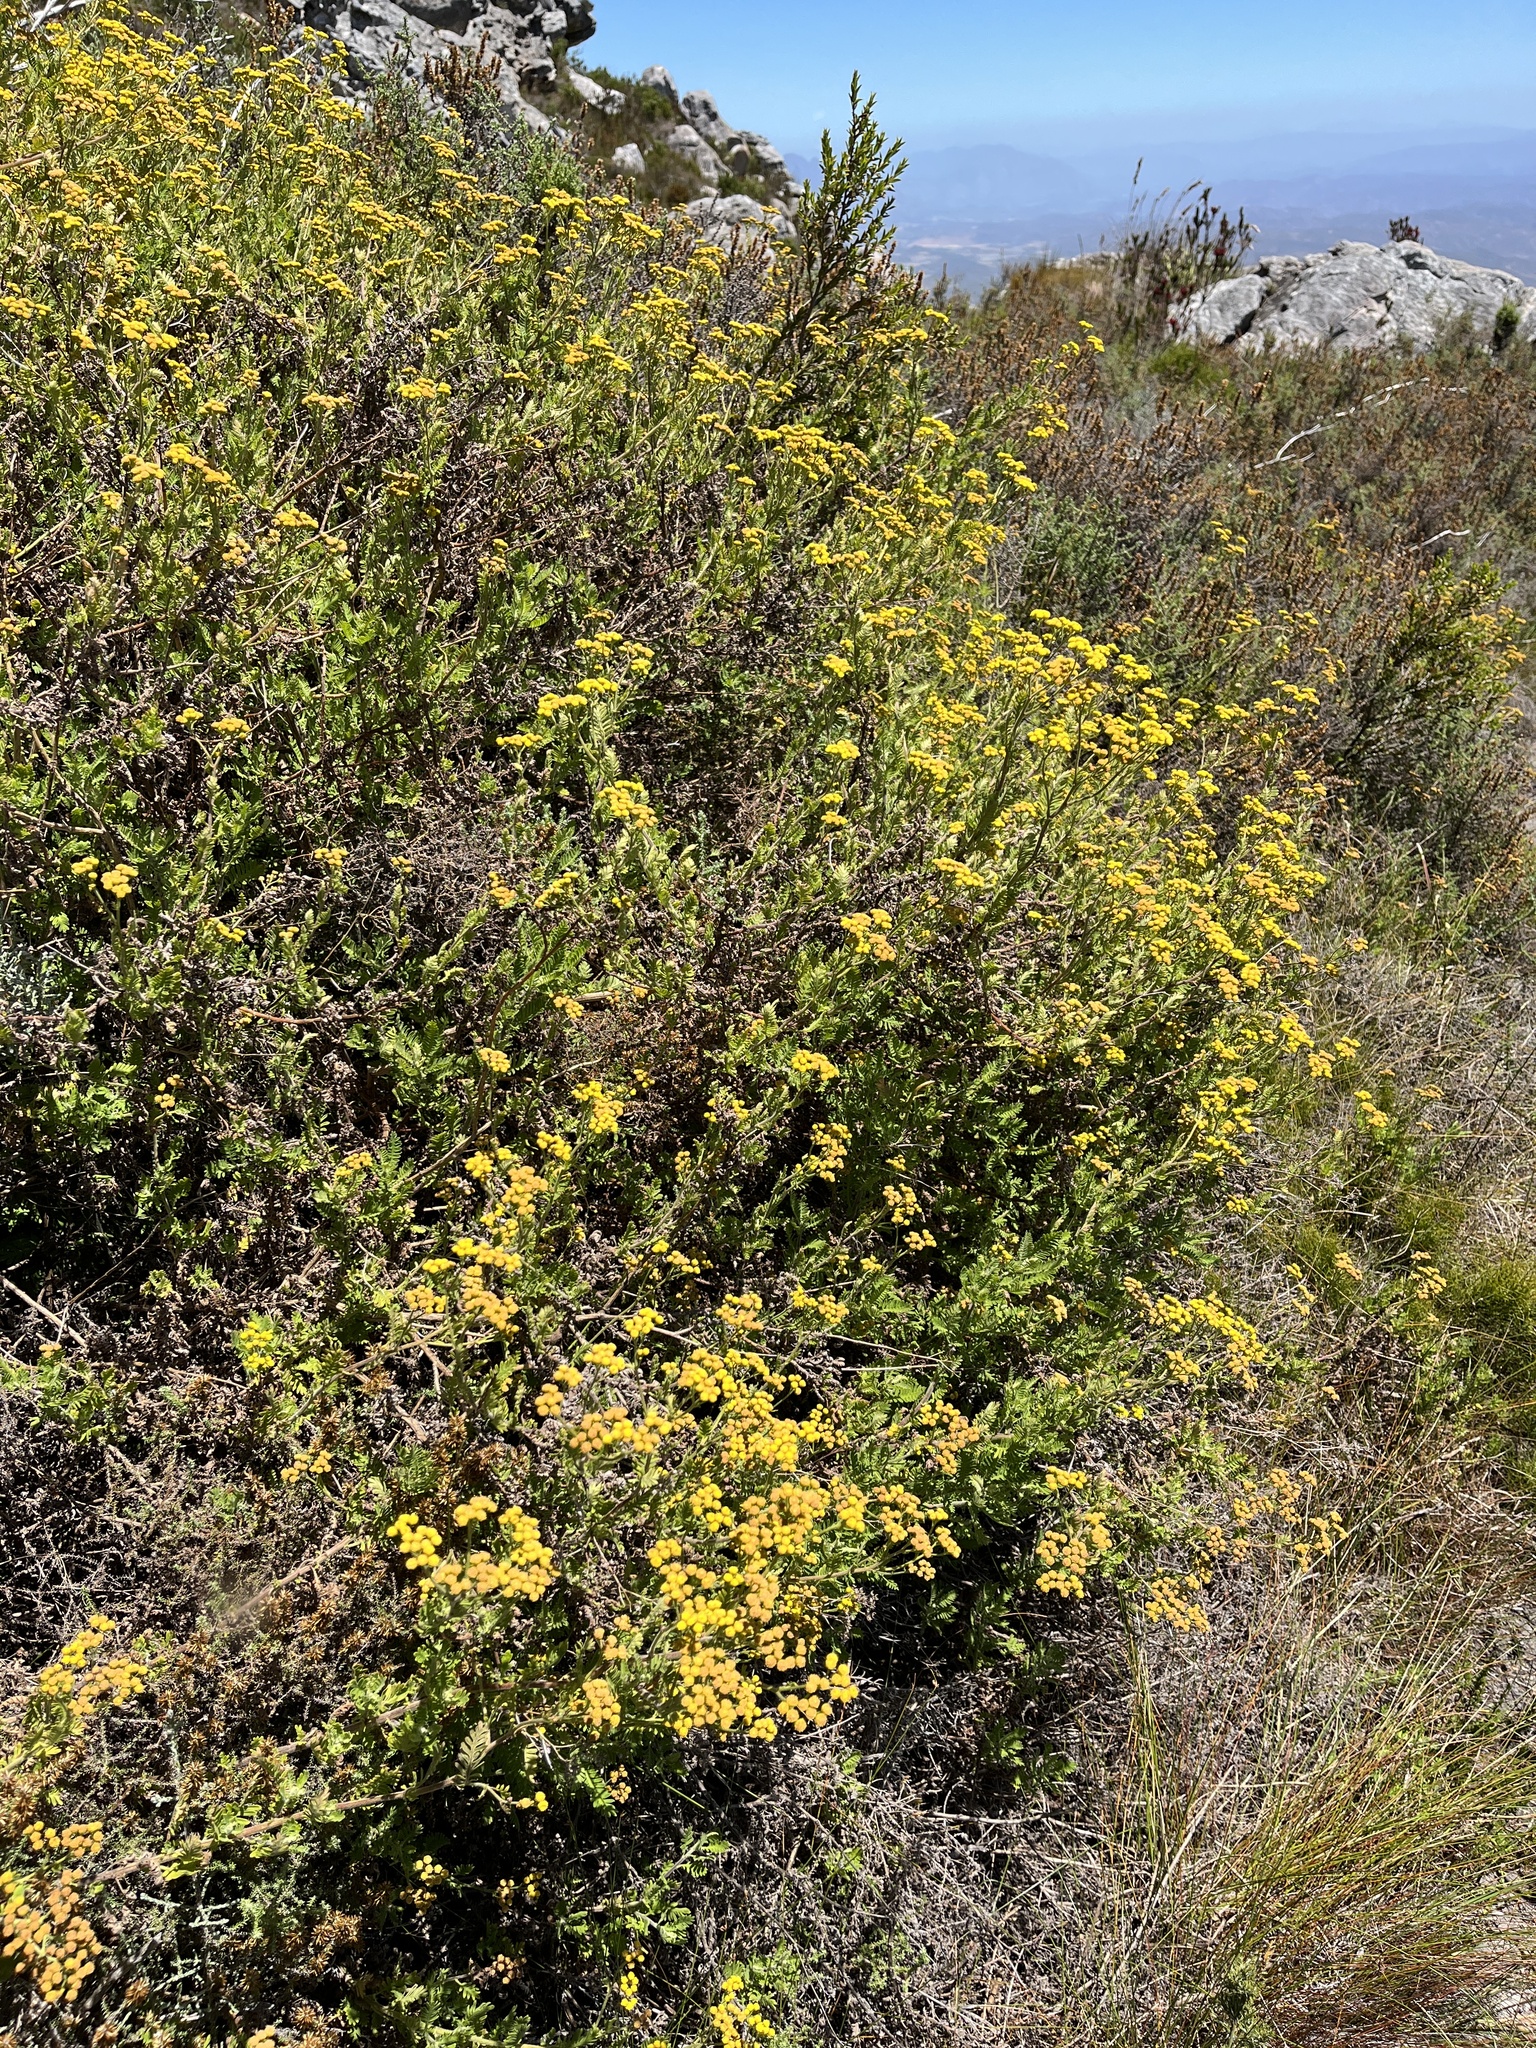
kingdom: Plantae
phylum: Tracheophyta
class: Magnoliopsida
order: Asterales
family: Asteraceae
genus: Hippia
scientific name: Hippia frutescens
